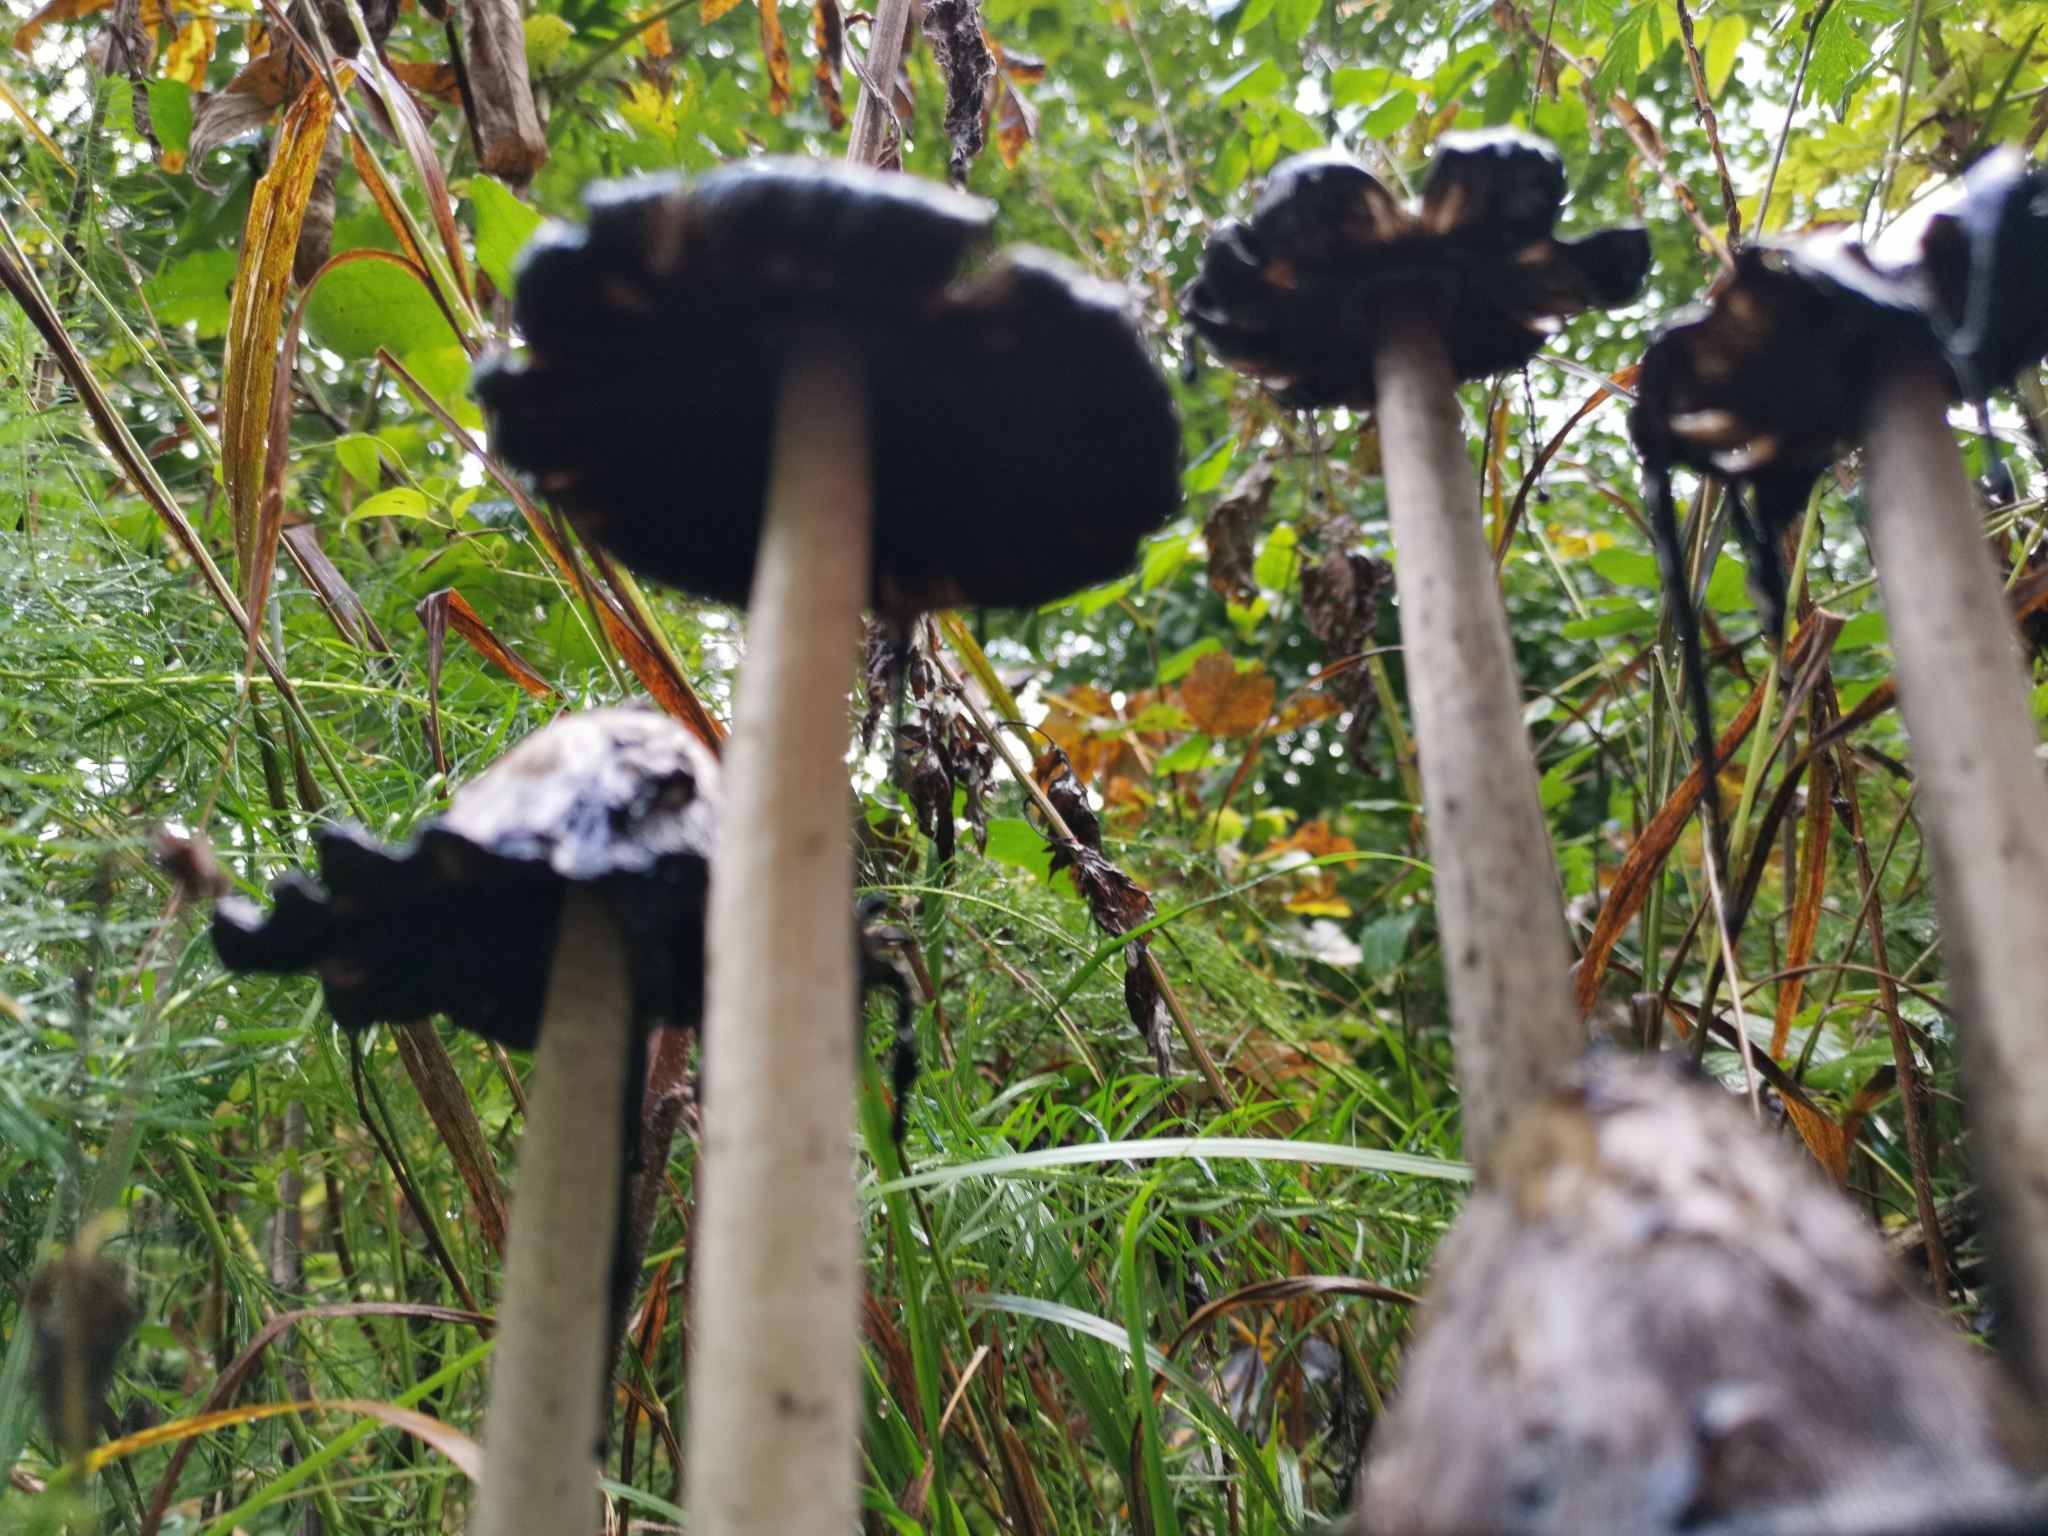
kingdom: Fungi
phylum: Basidiomycota
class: Agaricomycetes
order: Agaricales
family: Agaricaceae
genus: Coprinus
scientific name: Coprinus comatus
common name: Lawyer's wig
